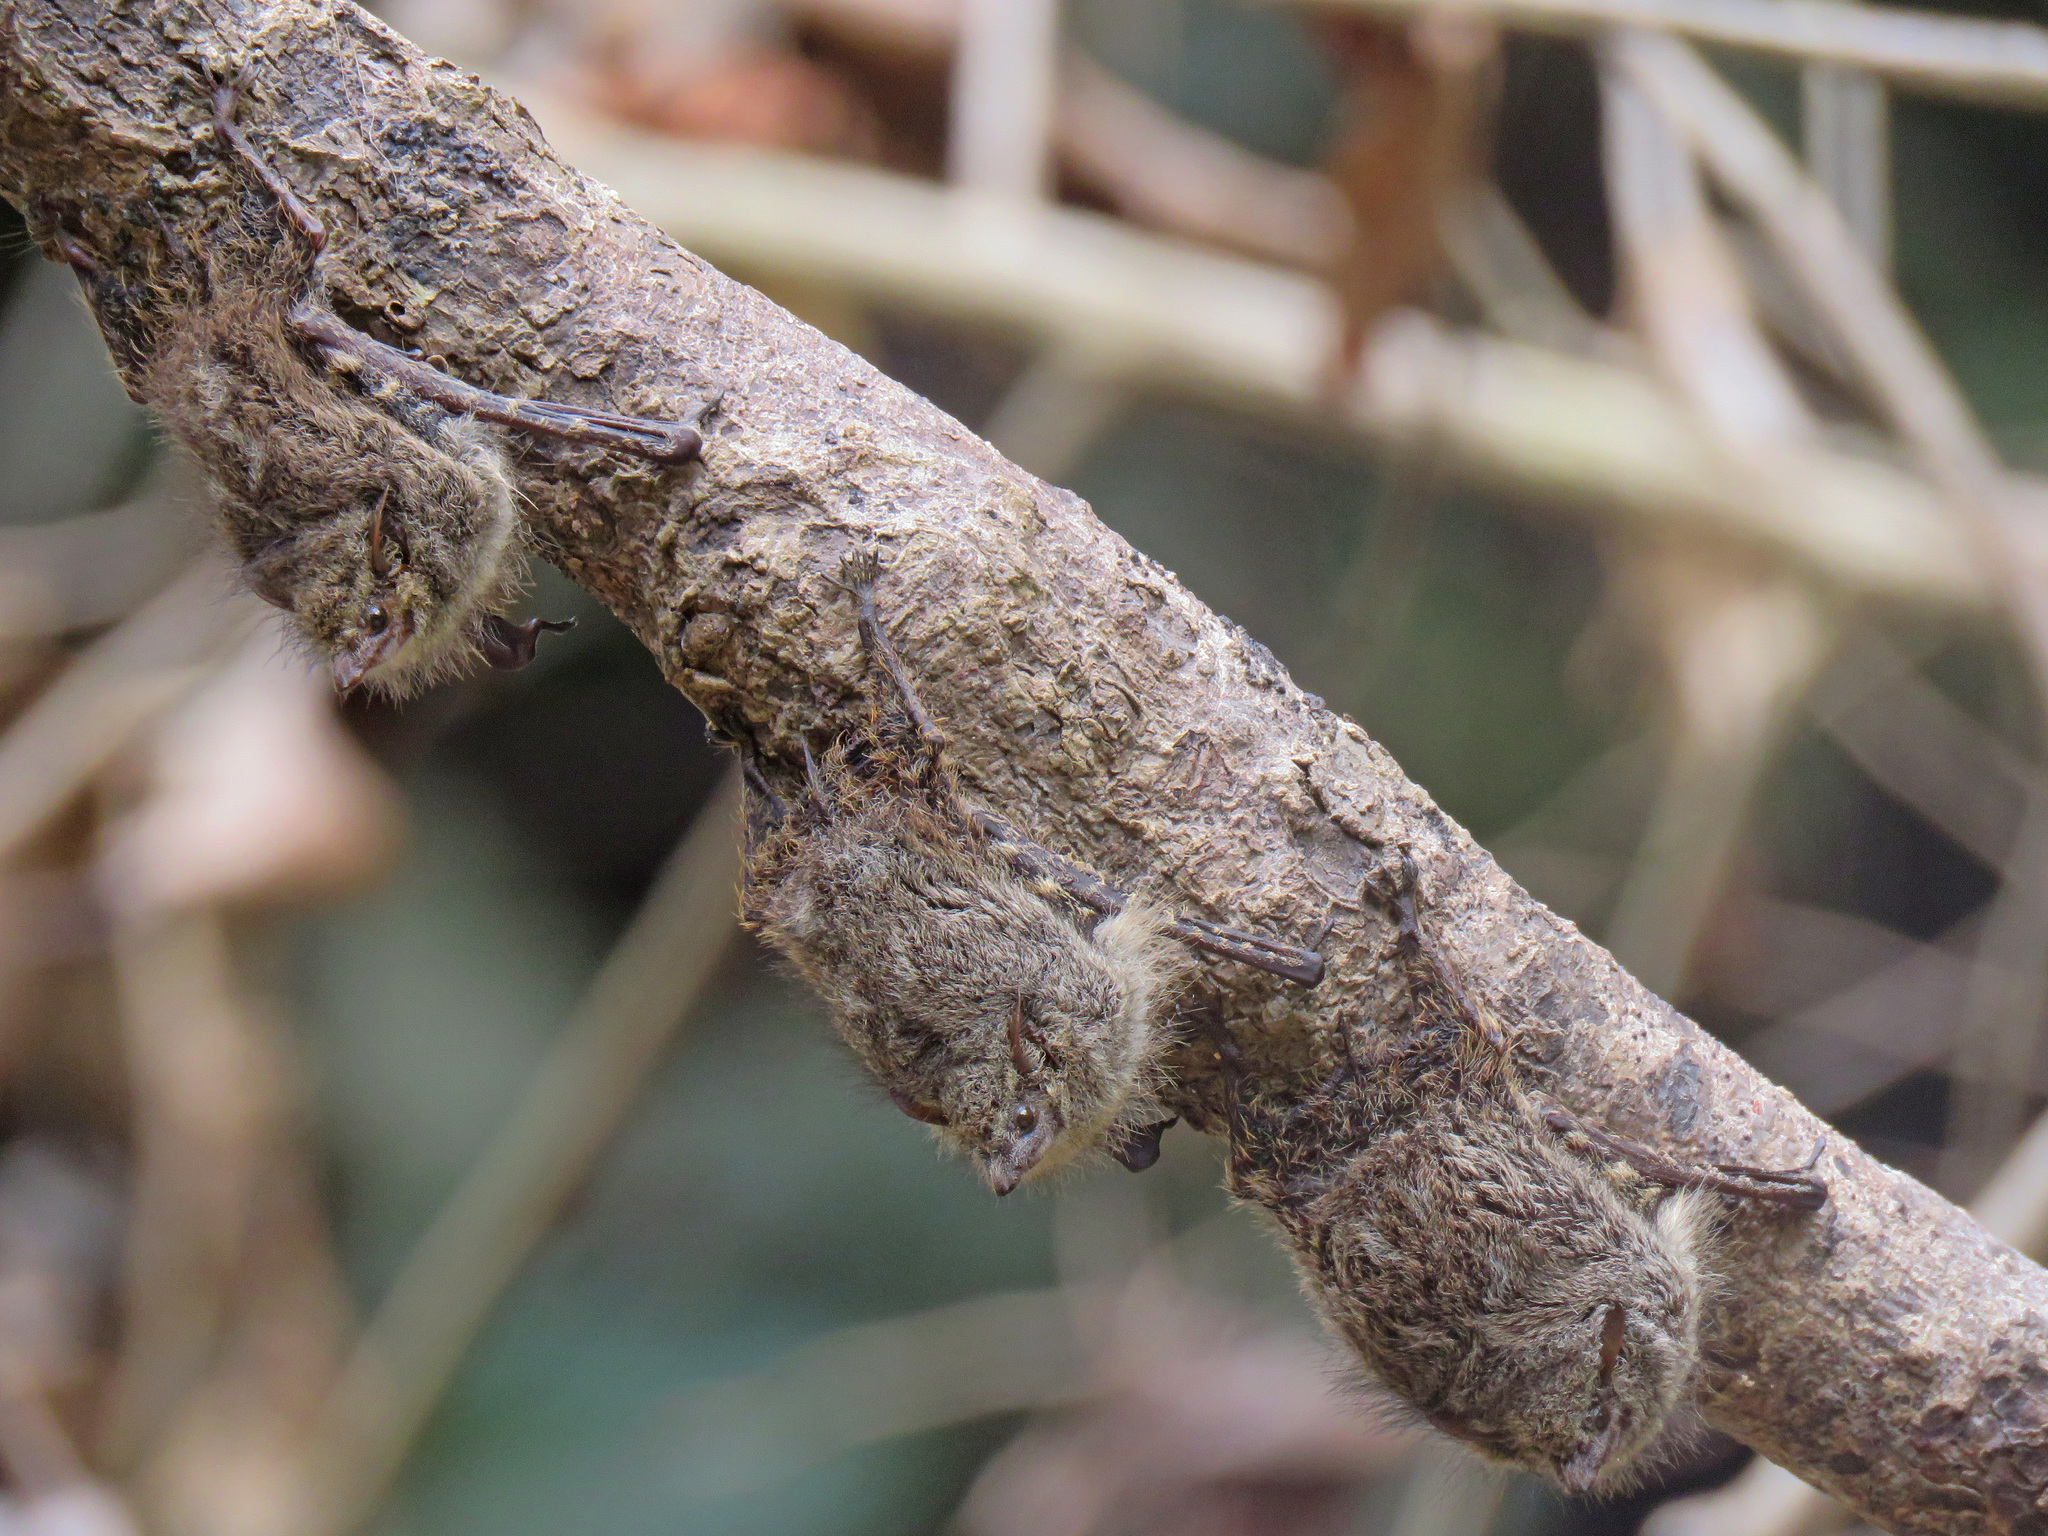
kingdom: Animalia
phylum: Chordata
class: Mammalia
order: Chiroptera
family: Emballonuridae
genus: Rhynchonycteris
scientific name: Rhynchonycteris naso
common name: Proboscis bat
